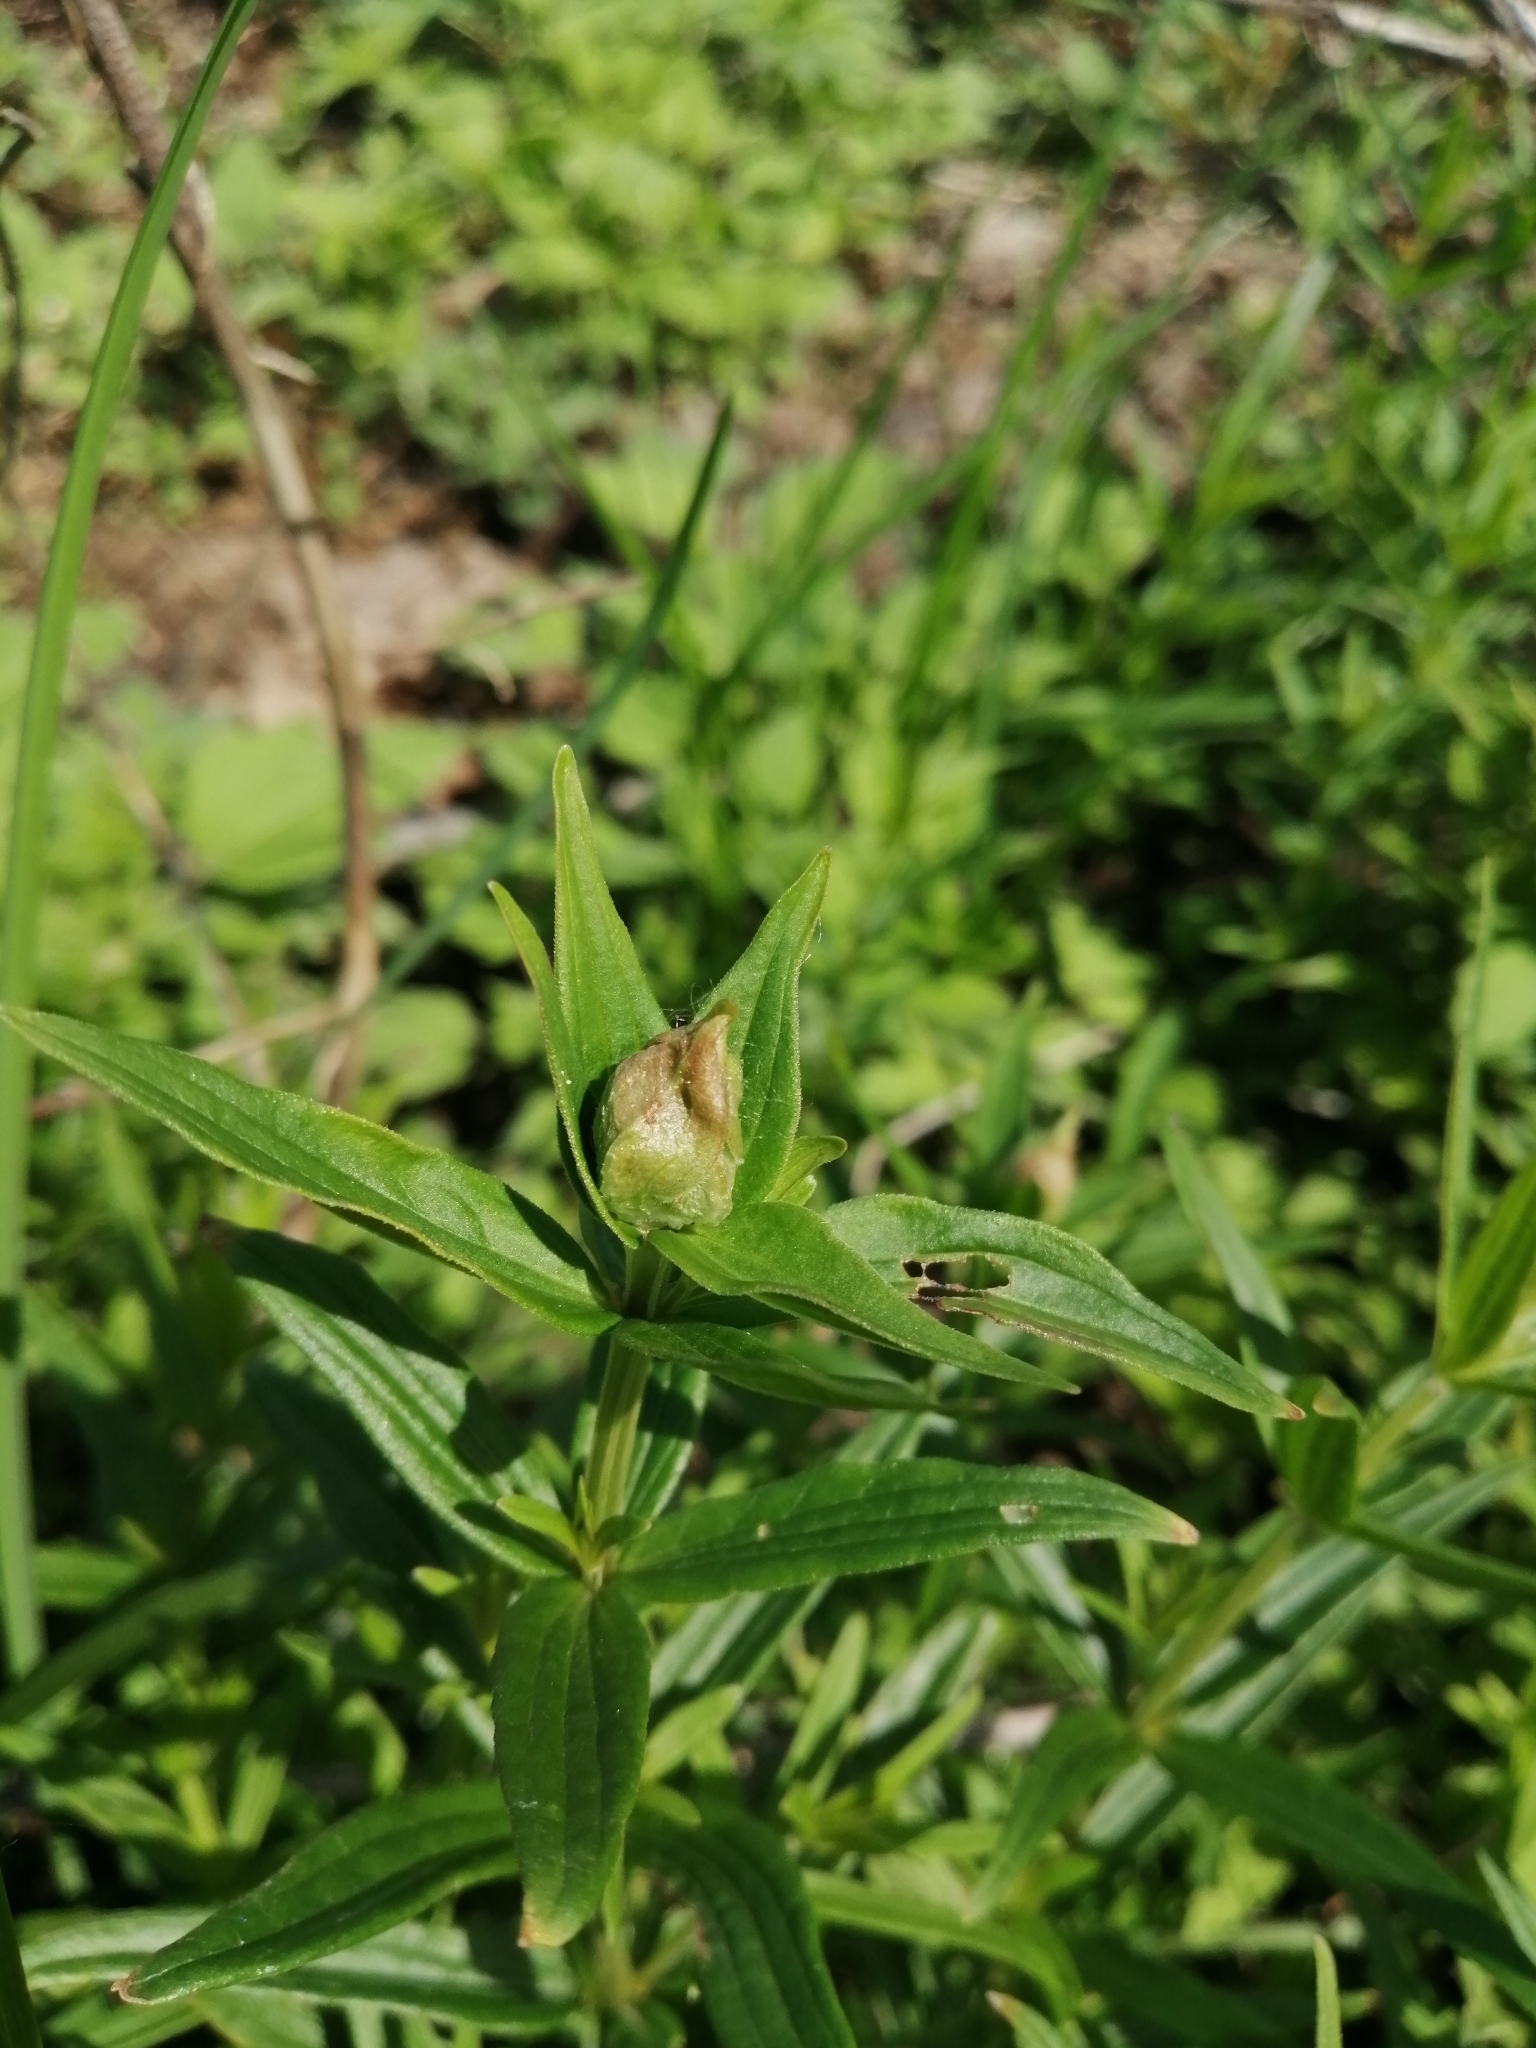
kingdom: Plantae
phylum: Tracheophyta
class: Magnoliopsida
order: Gentianales
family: Rubiaceae
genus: Galium
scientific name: Galium rubioides
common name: European bedstraw
